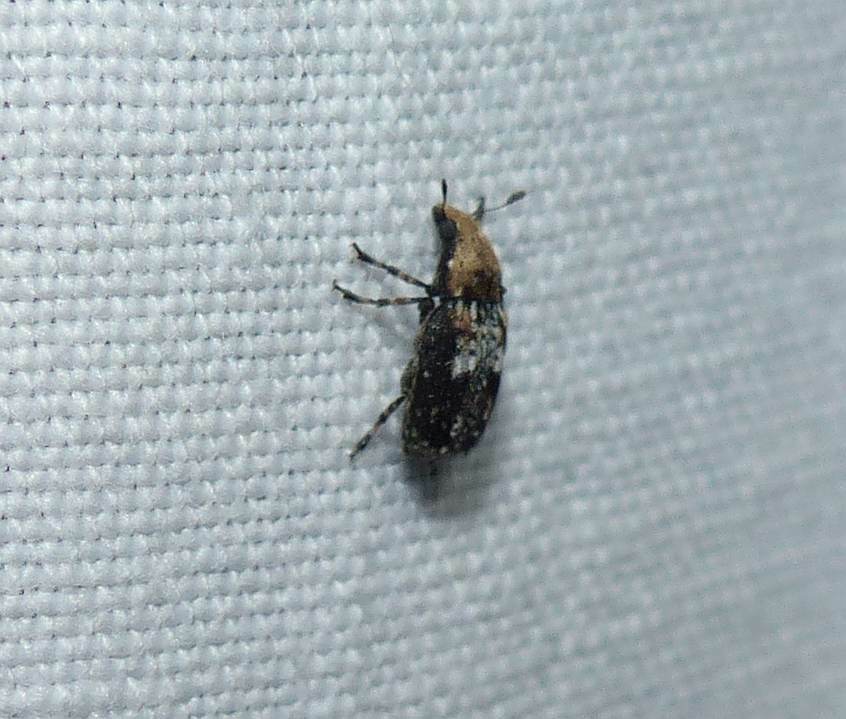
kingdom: Animalia
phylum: Arthropoda
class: Insecta
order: Coleoptera
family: Anthribidae
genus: Euparius
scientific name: Euparius paganus
